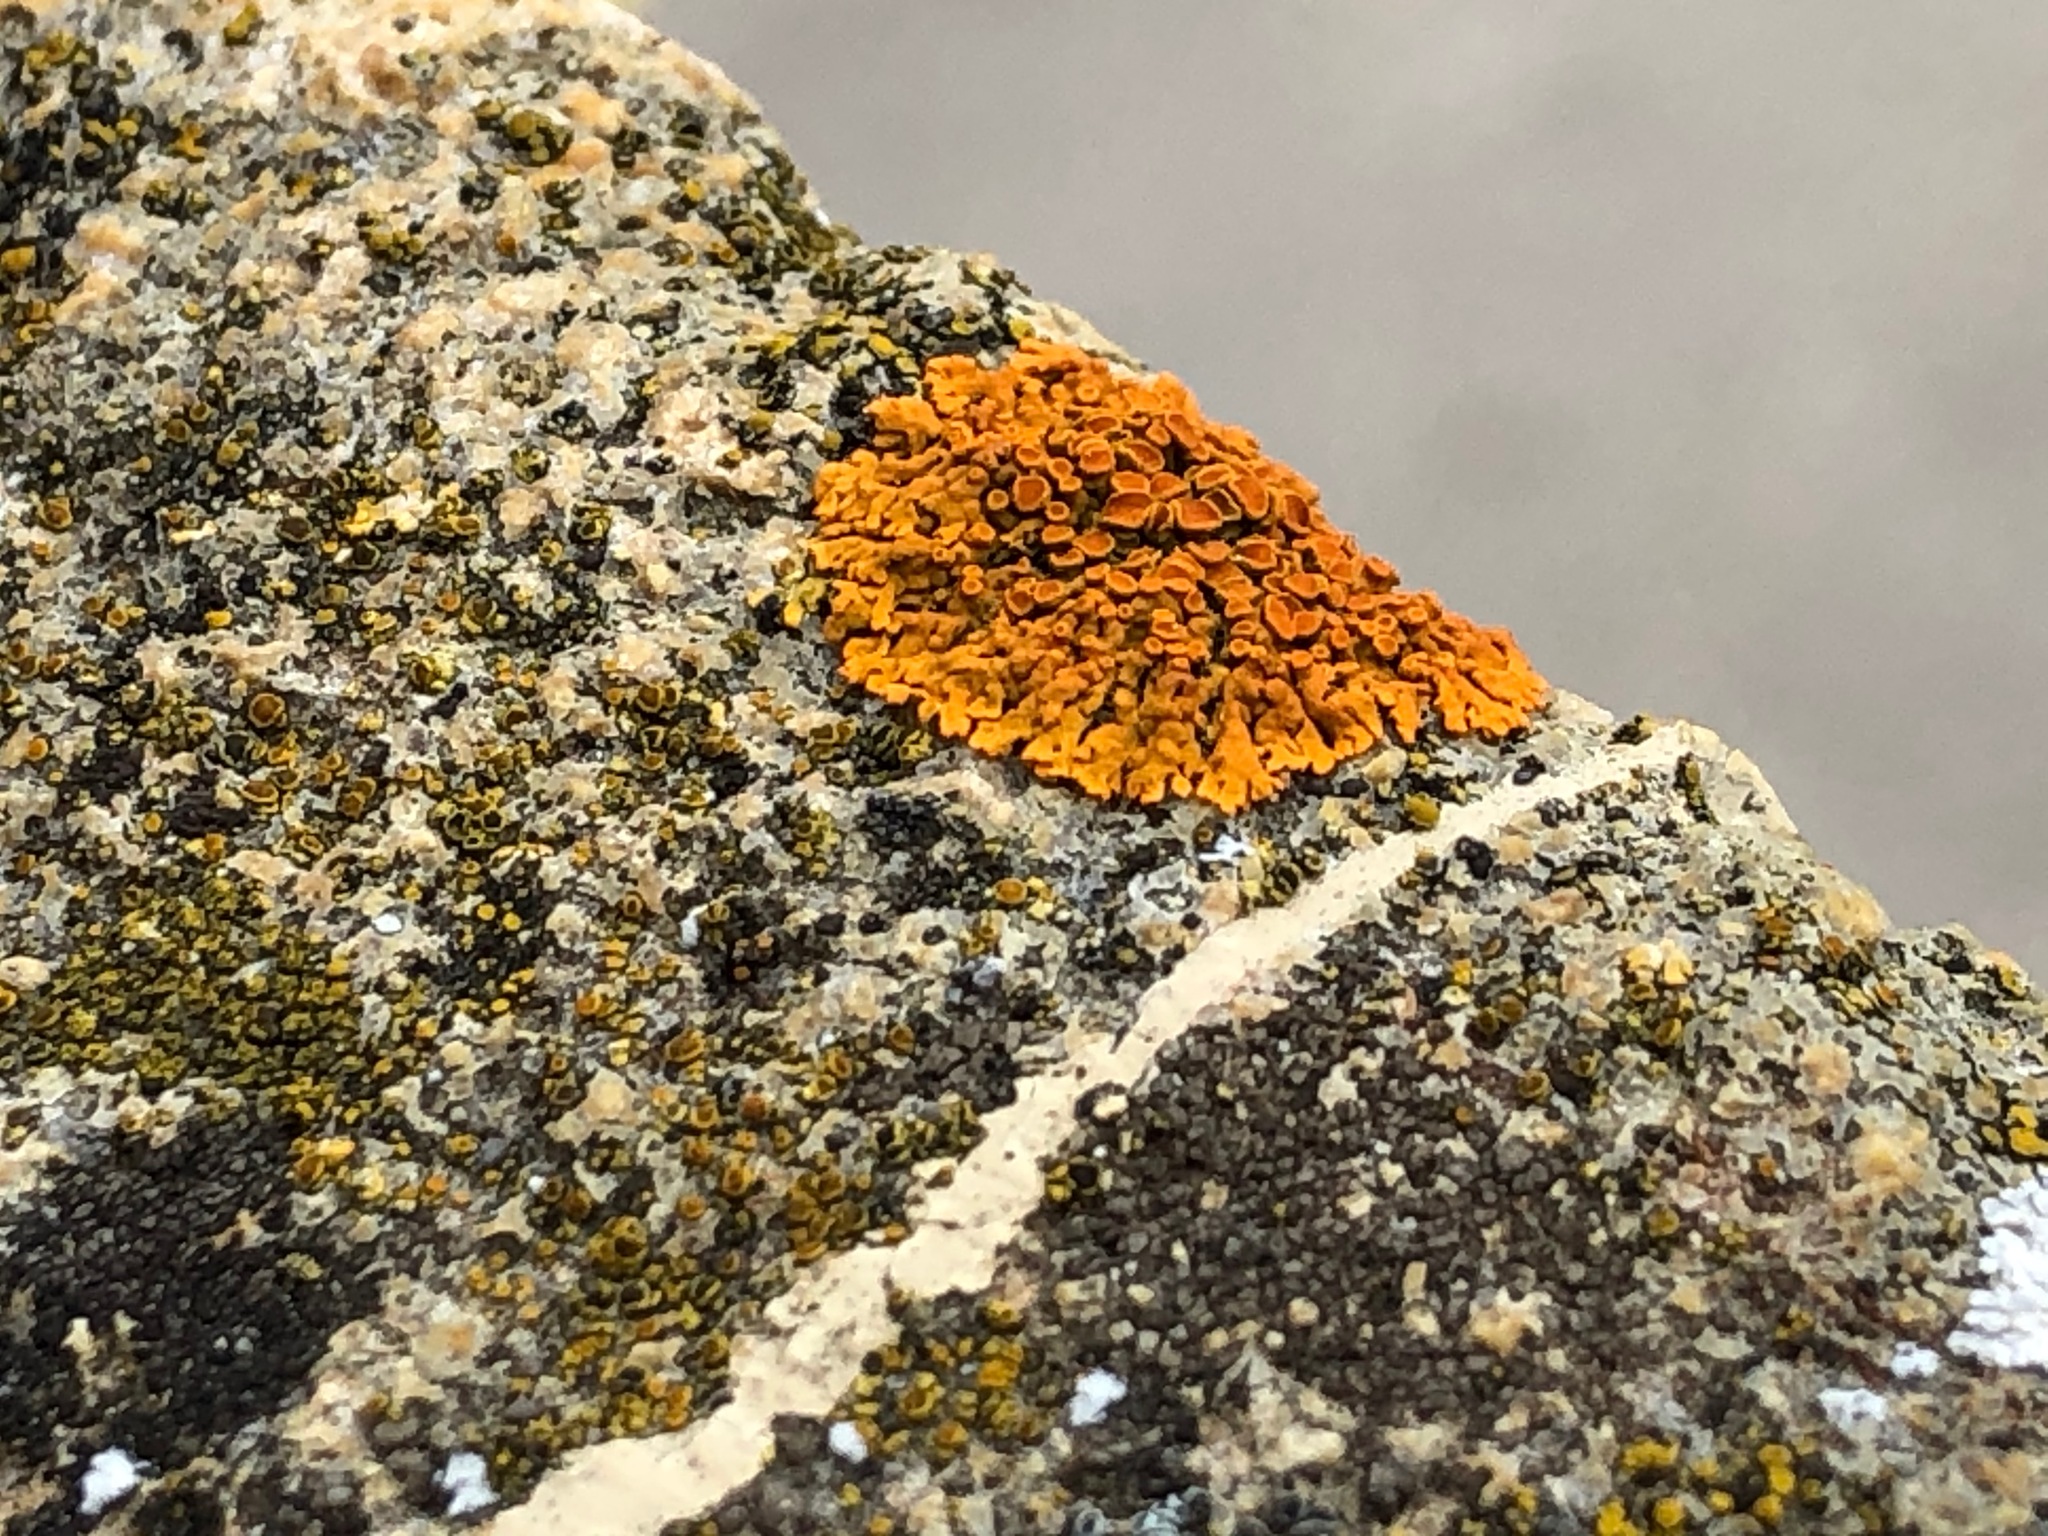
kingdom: Fungi
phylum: Ascomycota
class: Lecanoromycetes
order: Teloschistales
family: Teloschistaceae
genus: Xanthoria
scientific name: Xanthoria parietina
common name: Common orange lichen
